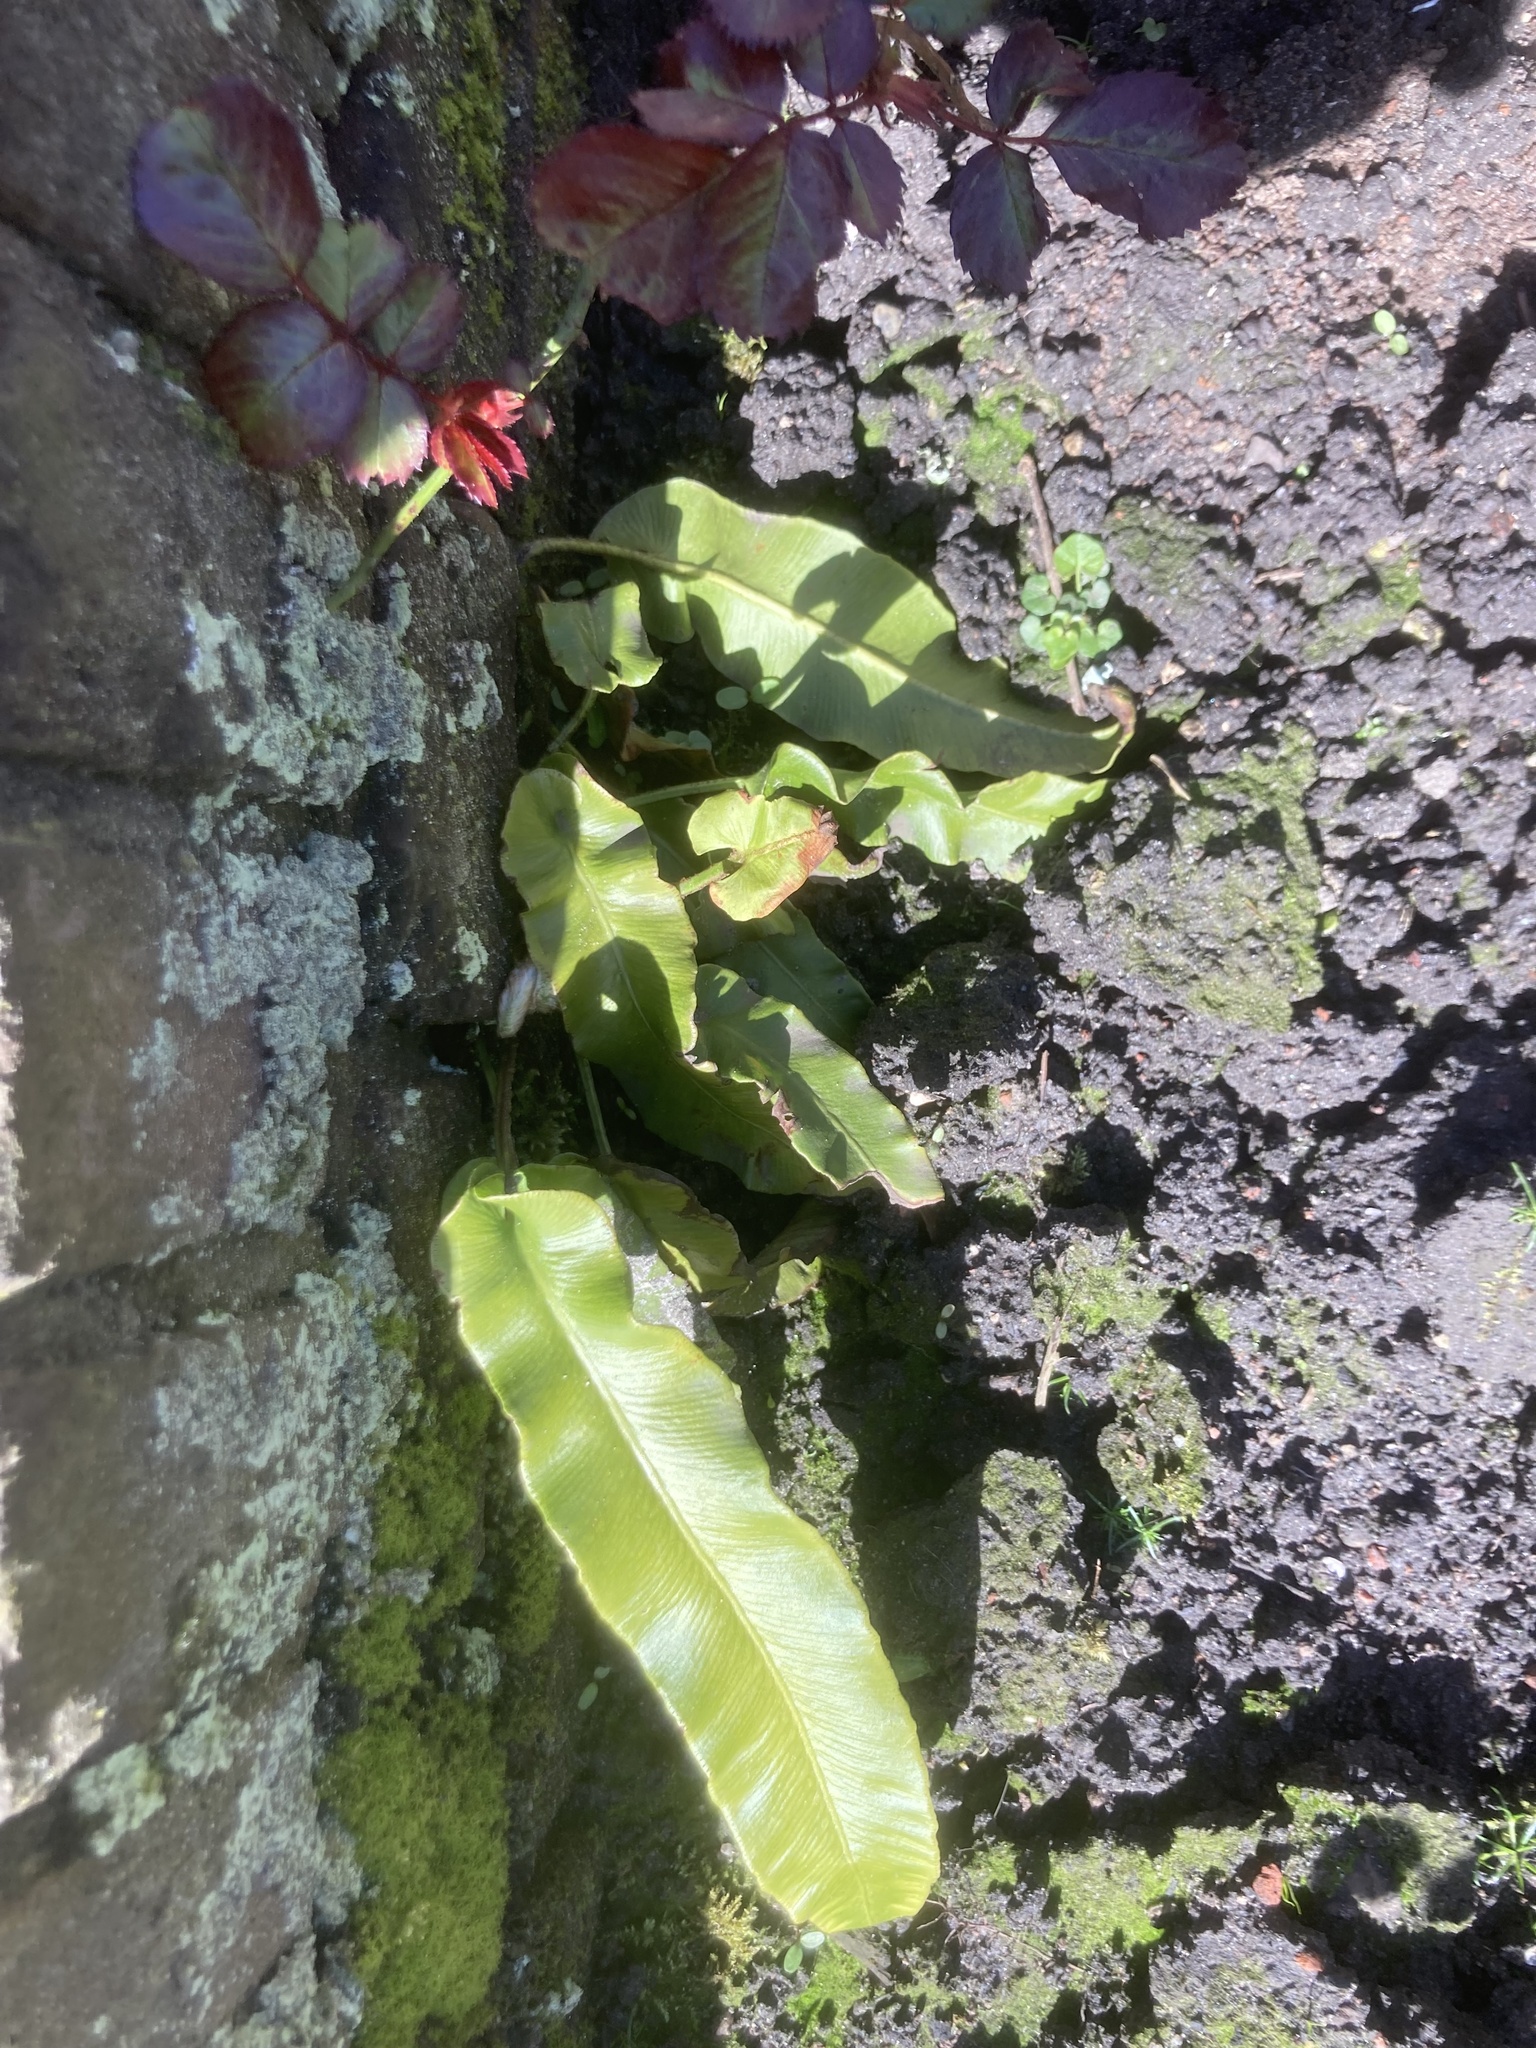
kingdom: Plantae
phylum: Tracheophyta
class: Polypodiopsida
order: Polypodiales
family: Aspleniaceae
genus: Asplenium
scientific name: Asplenium scolopendrium
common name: Hart's-tongue fern
